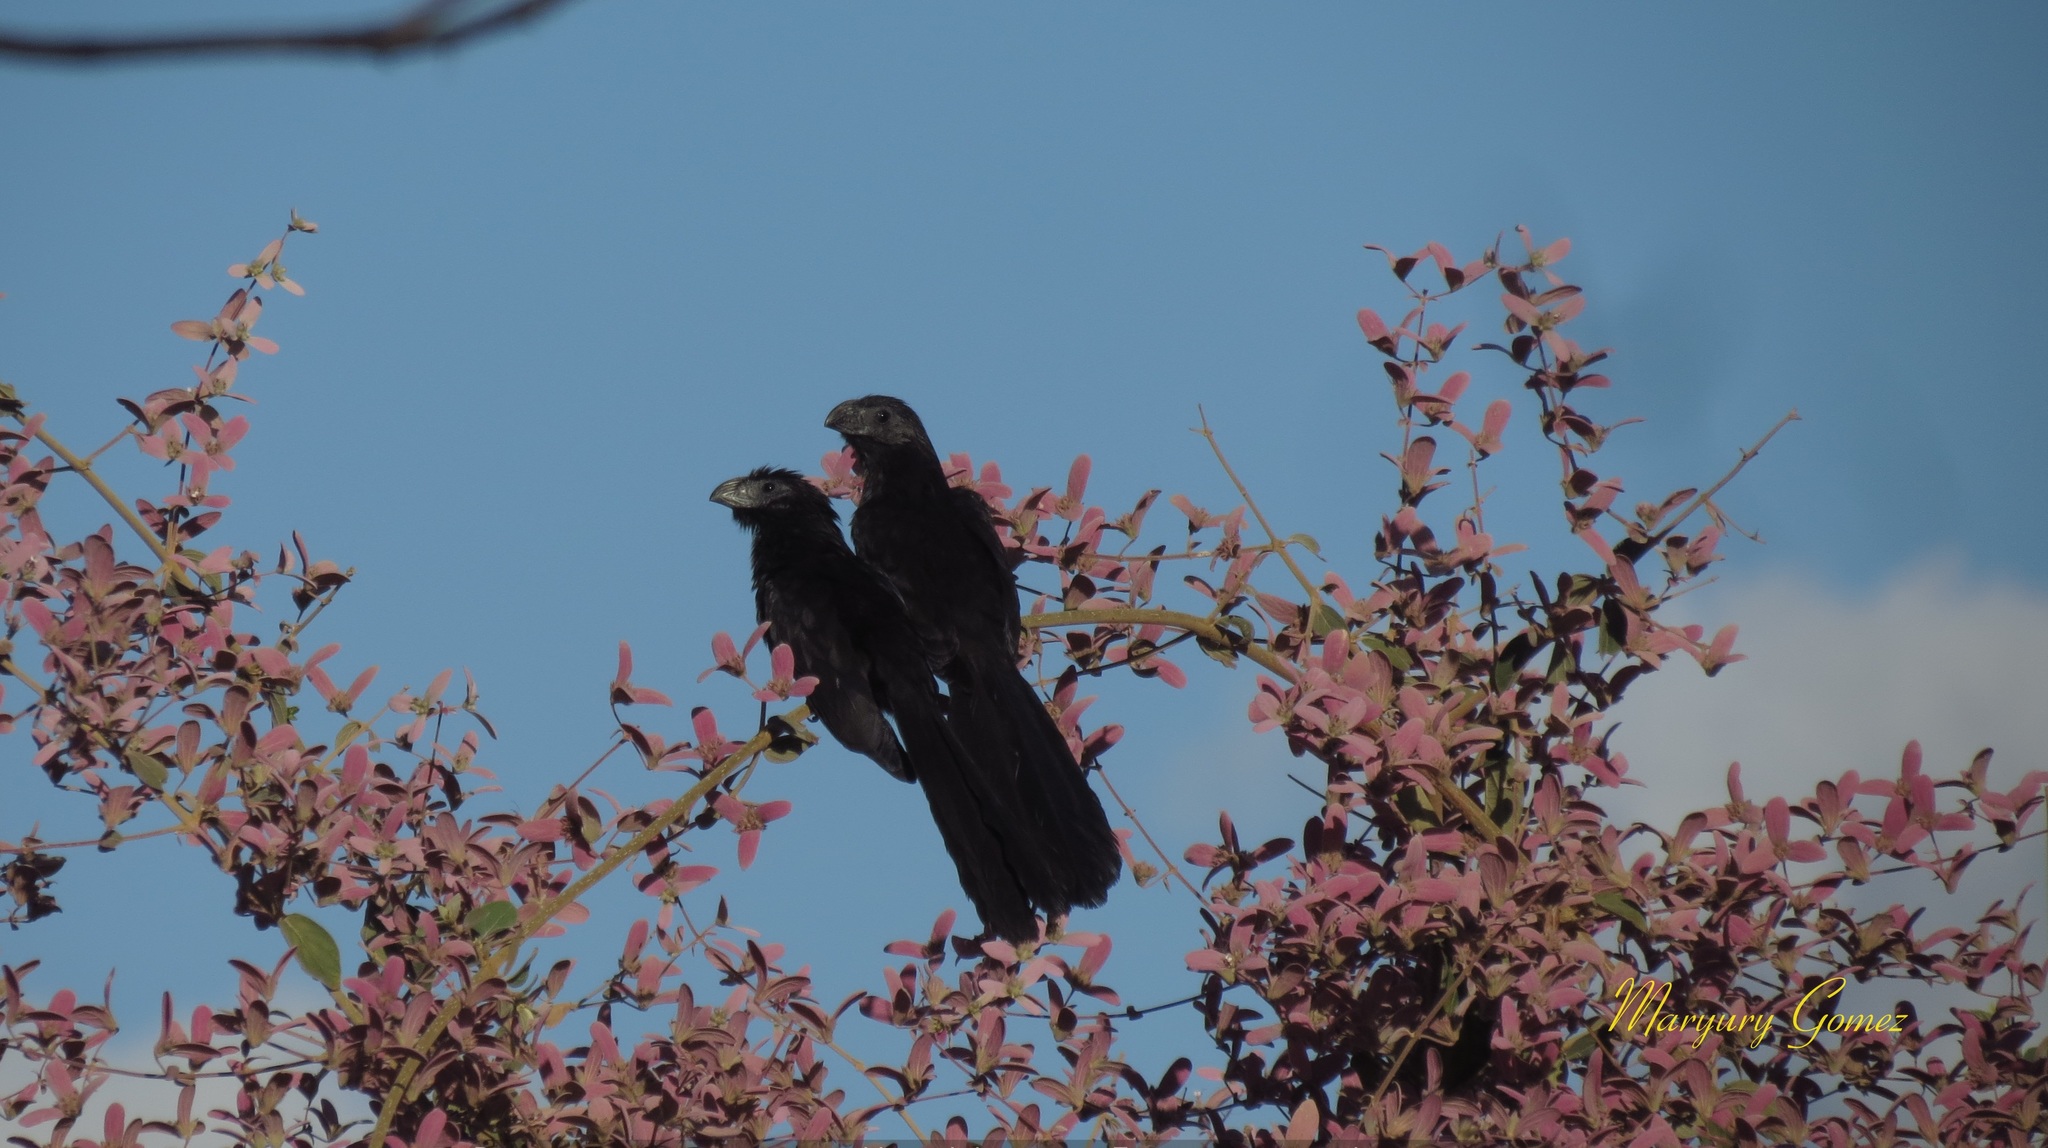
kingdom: Animalia
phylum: Chordata
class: Aves
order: Cuculiformes
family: Cuculidae
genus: Crotophaga
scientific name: Crotophaga sulcirostris
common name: Groove-billed ani
